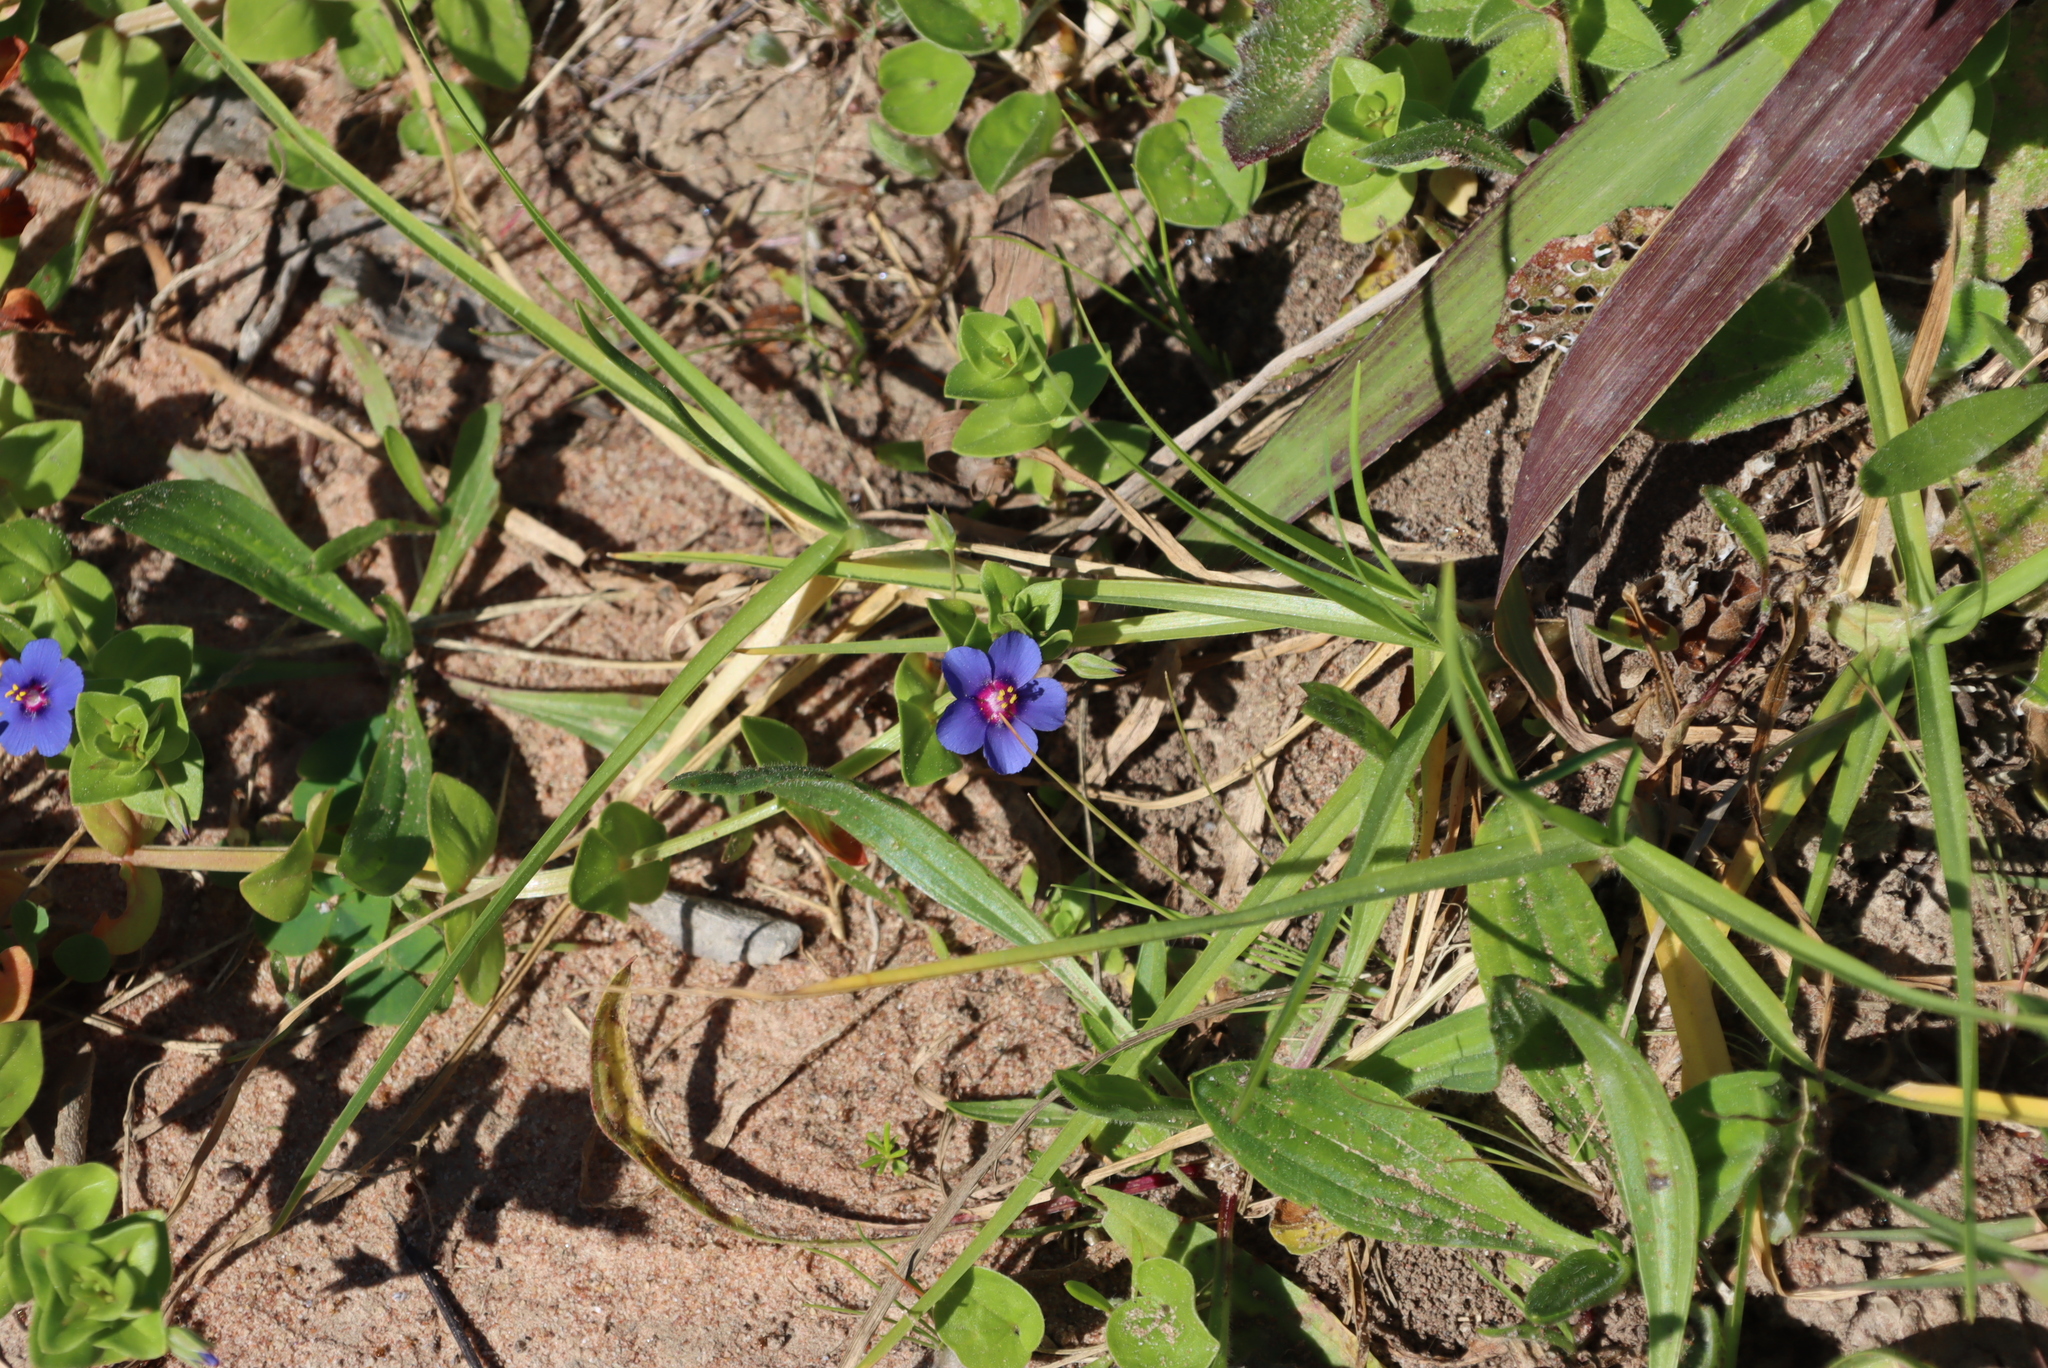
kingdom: Plantae
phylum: Tracheophyta
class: Magnoliopsida
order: Ericales
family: Primulaceae
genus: Lysimachia
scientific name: Lysimachia loeflingii
